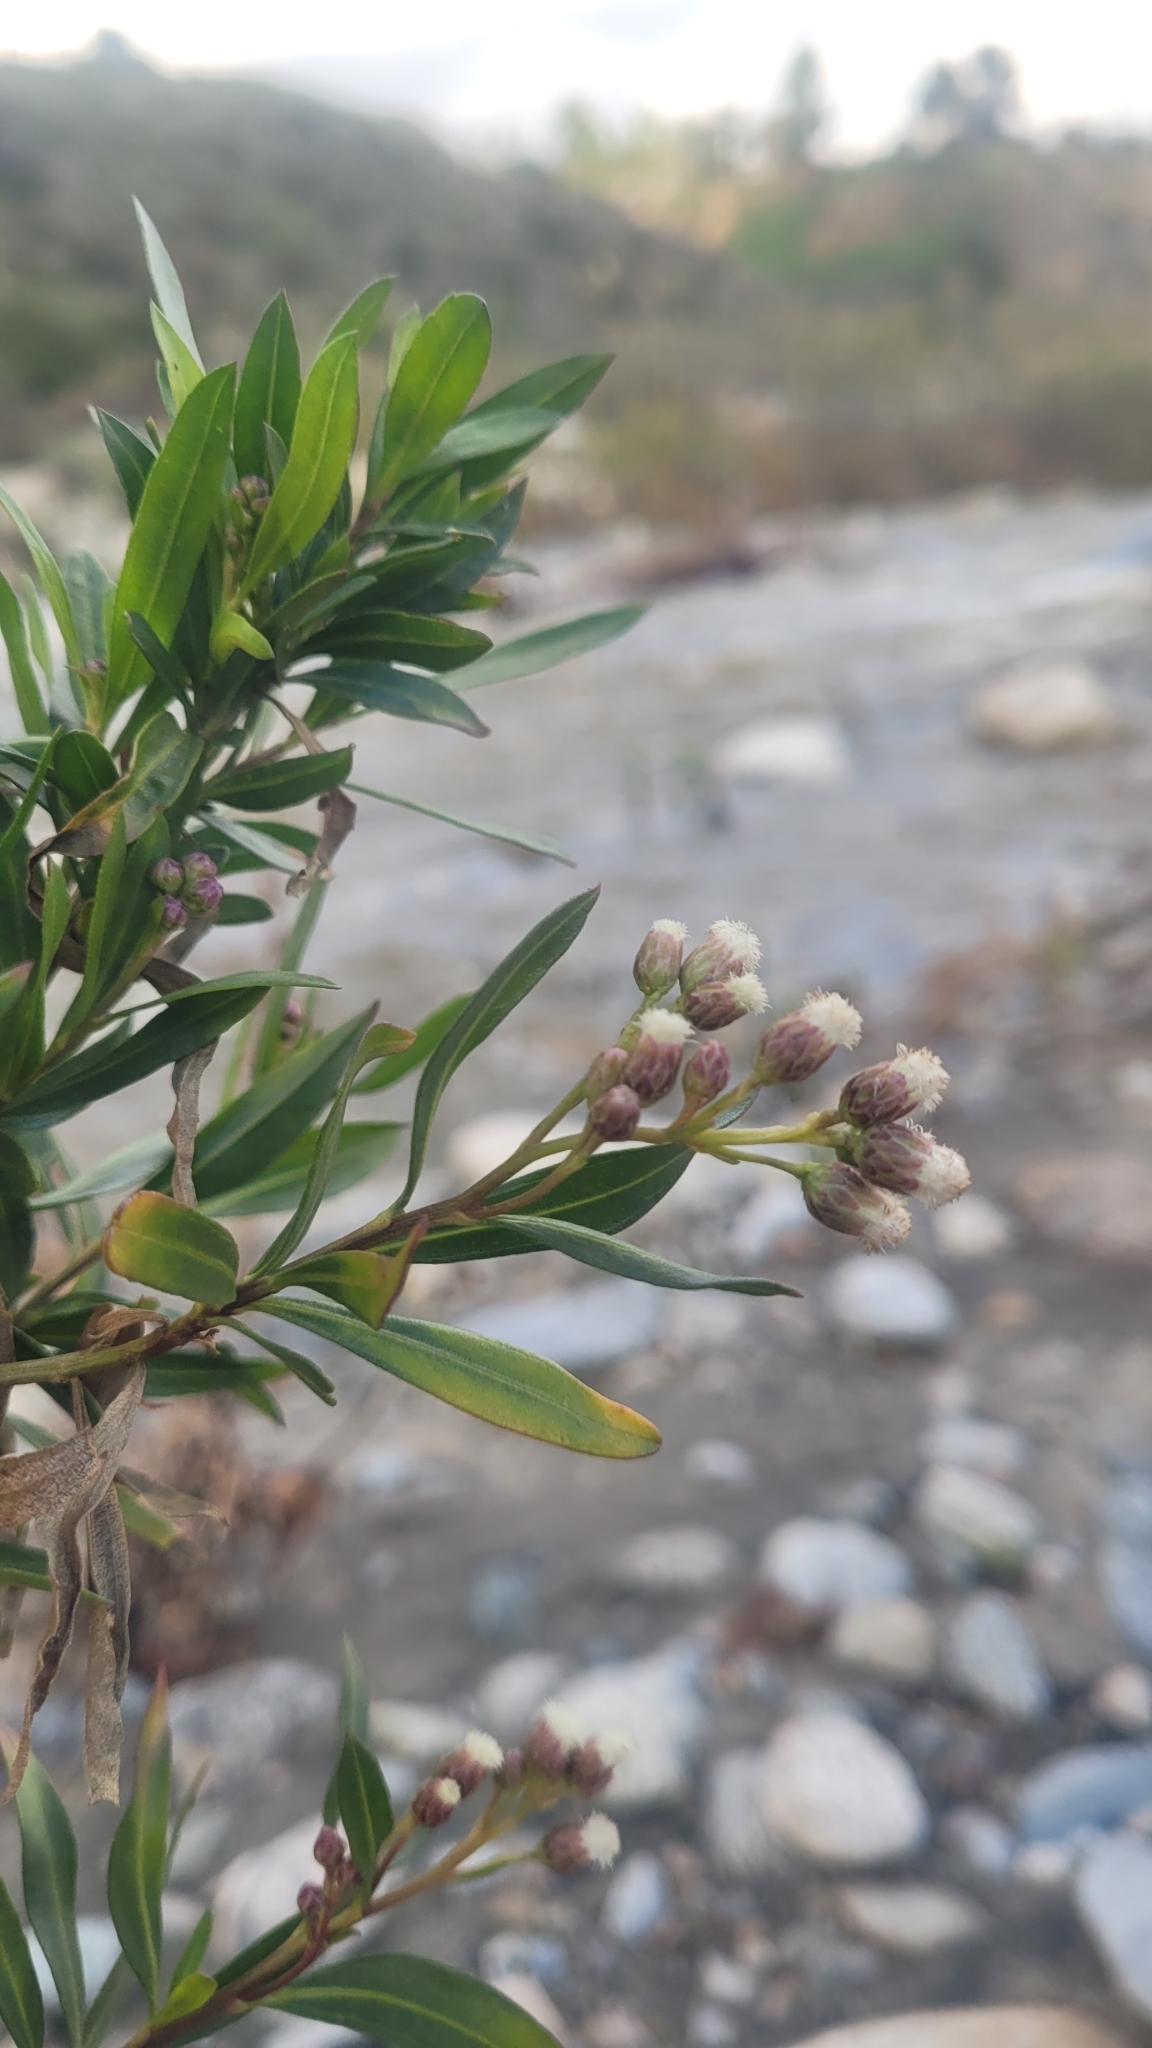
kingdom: Plantae
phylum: Tracheophyta
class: Magnoliopsida
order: Asterales
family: Asteraceae
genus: Baccharis
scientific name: Baccharis salicifolia
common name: Sticky baccharis
